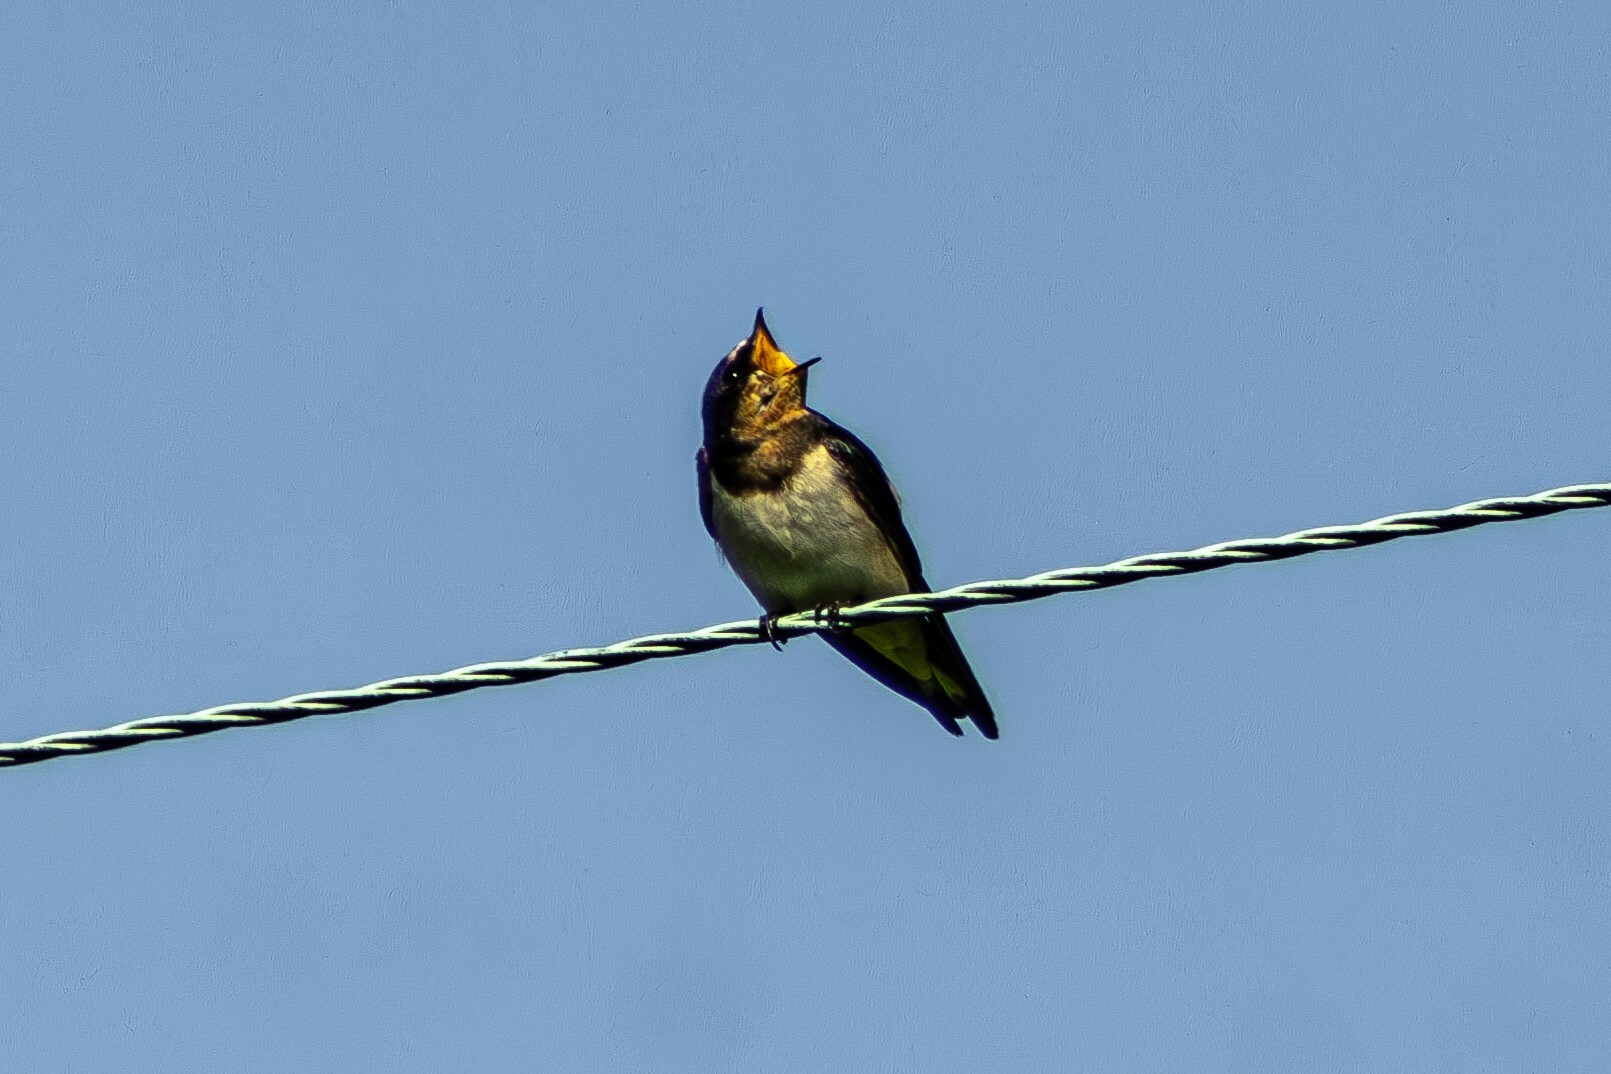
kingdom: Animalia
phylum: Chordata
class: Aves
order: Passeriformes
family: Hirundinidae
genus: Hirundo
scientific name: Hirundo rustica
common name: Barn swallow
